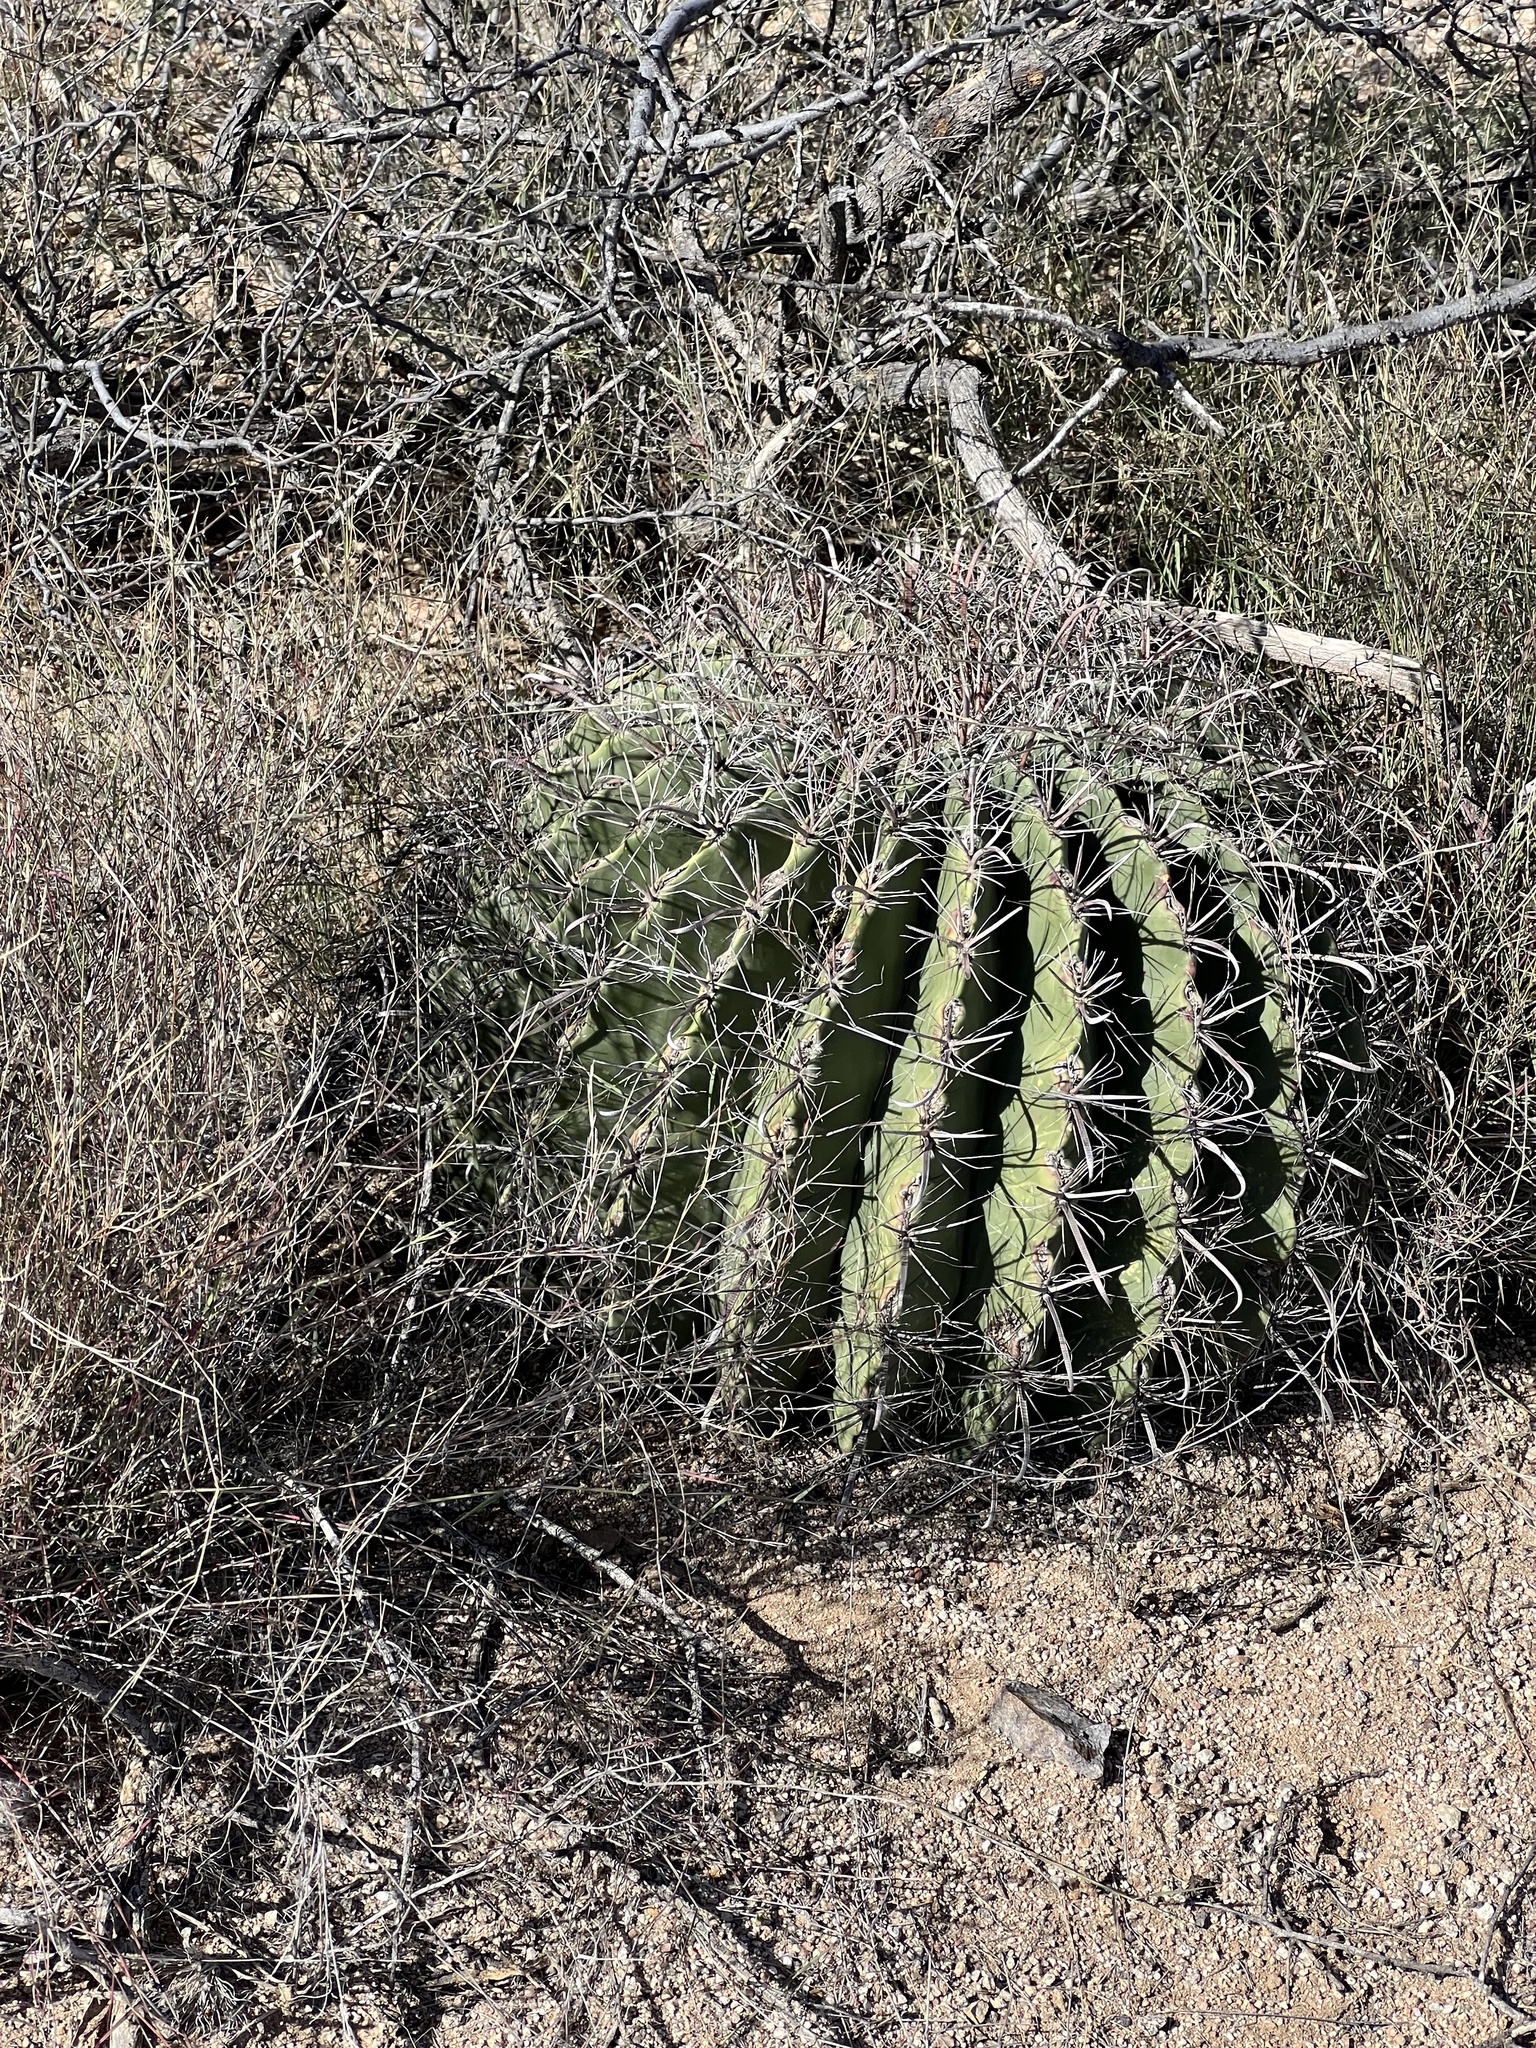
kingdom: Plantae
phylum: Tracheophyta
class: Magnoliopsida
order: Caryophyllales
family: Cactaceae
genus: Ferocactus
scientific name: Ferocactus wislizeni
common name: Candy barrel cactus
